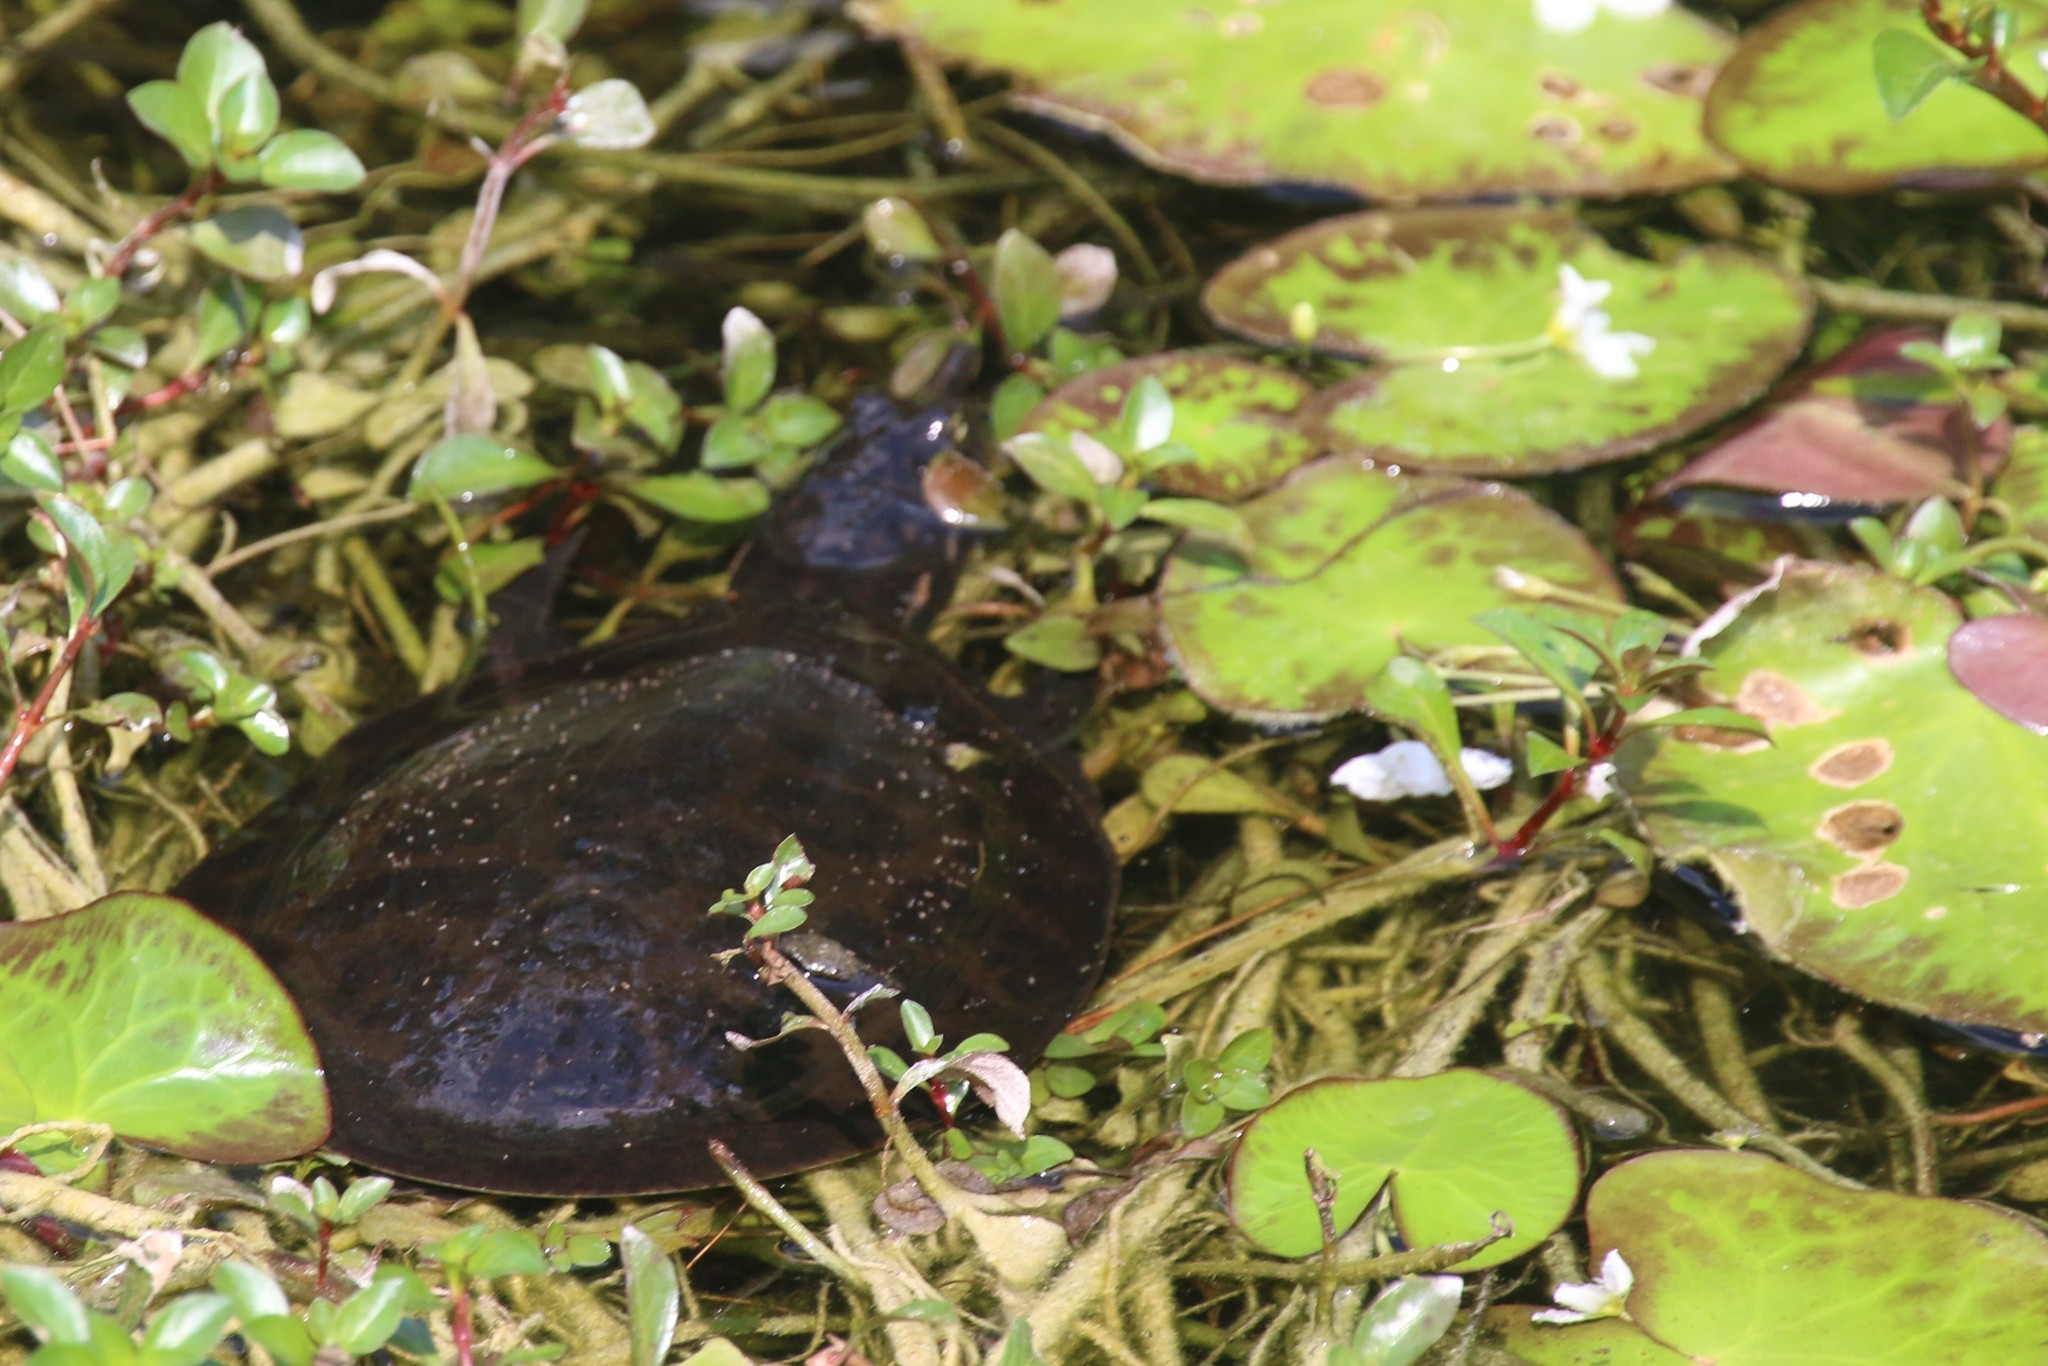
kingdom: Animalia
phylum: Chordata
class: Testudines
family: Trionychidae
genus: Apalone
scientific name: Apalone ferox
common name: Florida softshell turtle
